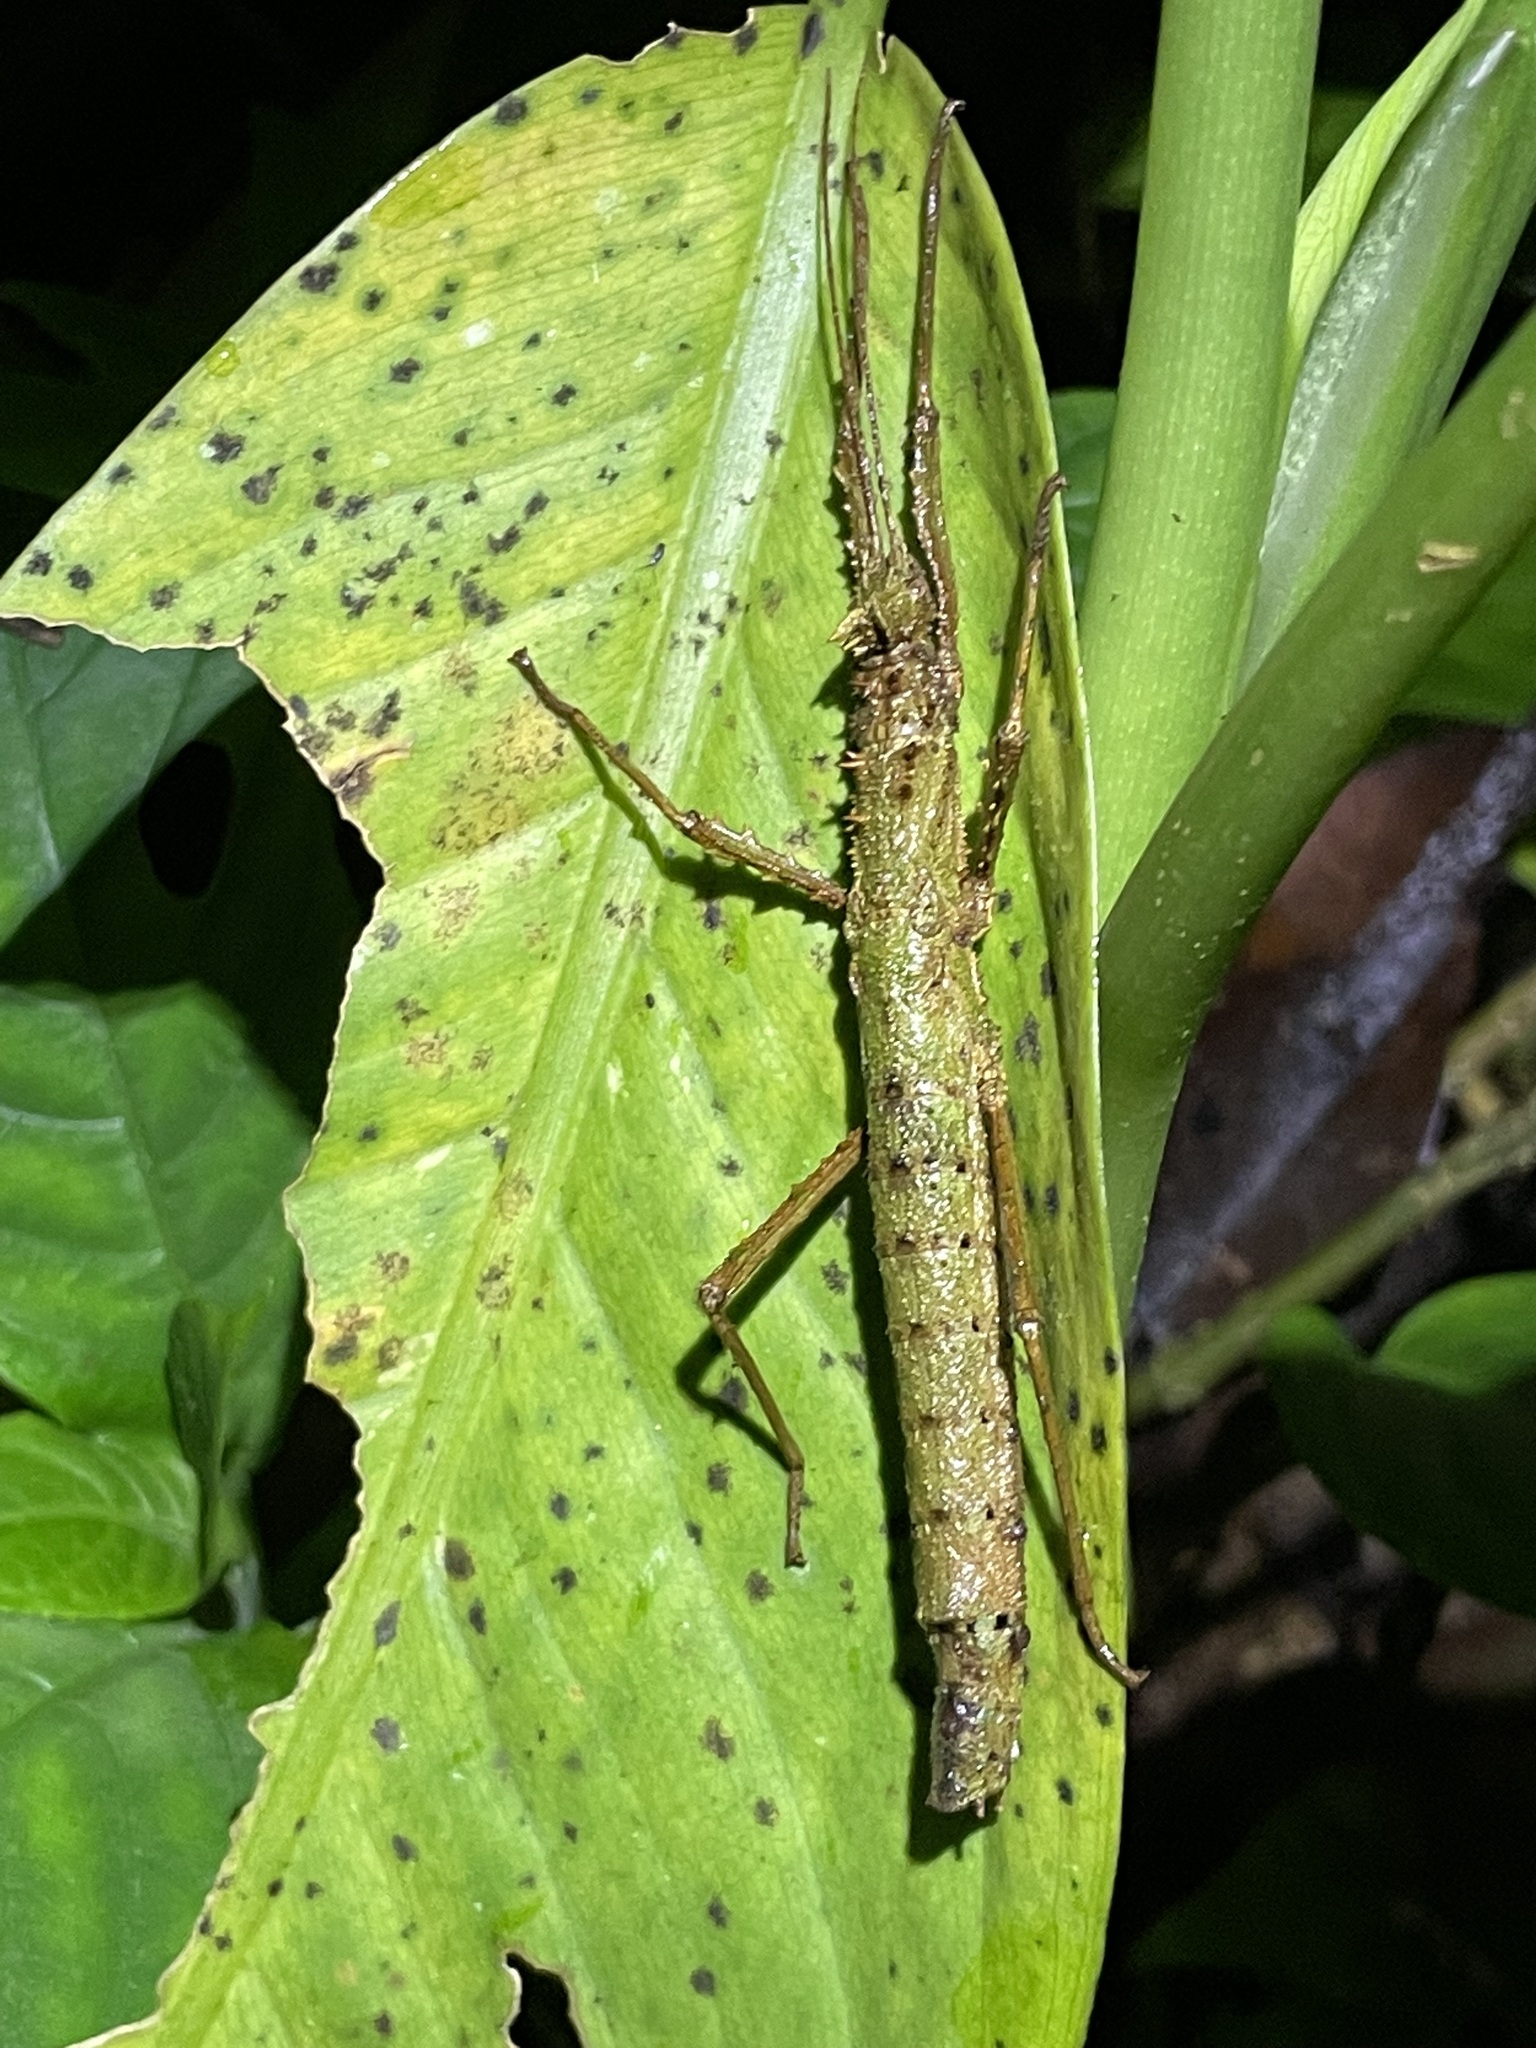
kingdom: Animalia
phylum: Arthropoda
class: Insecta
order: Phasmida
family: Pseudophasmatidae
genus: Creoxylus
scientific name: Creoxylus spinosus
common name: Trinidad log stick insect
